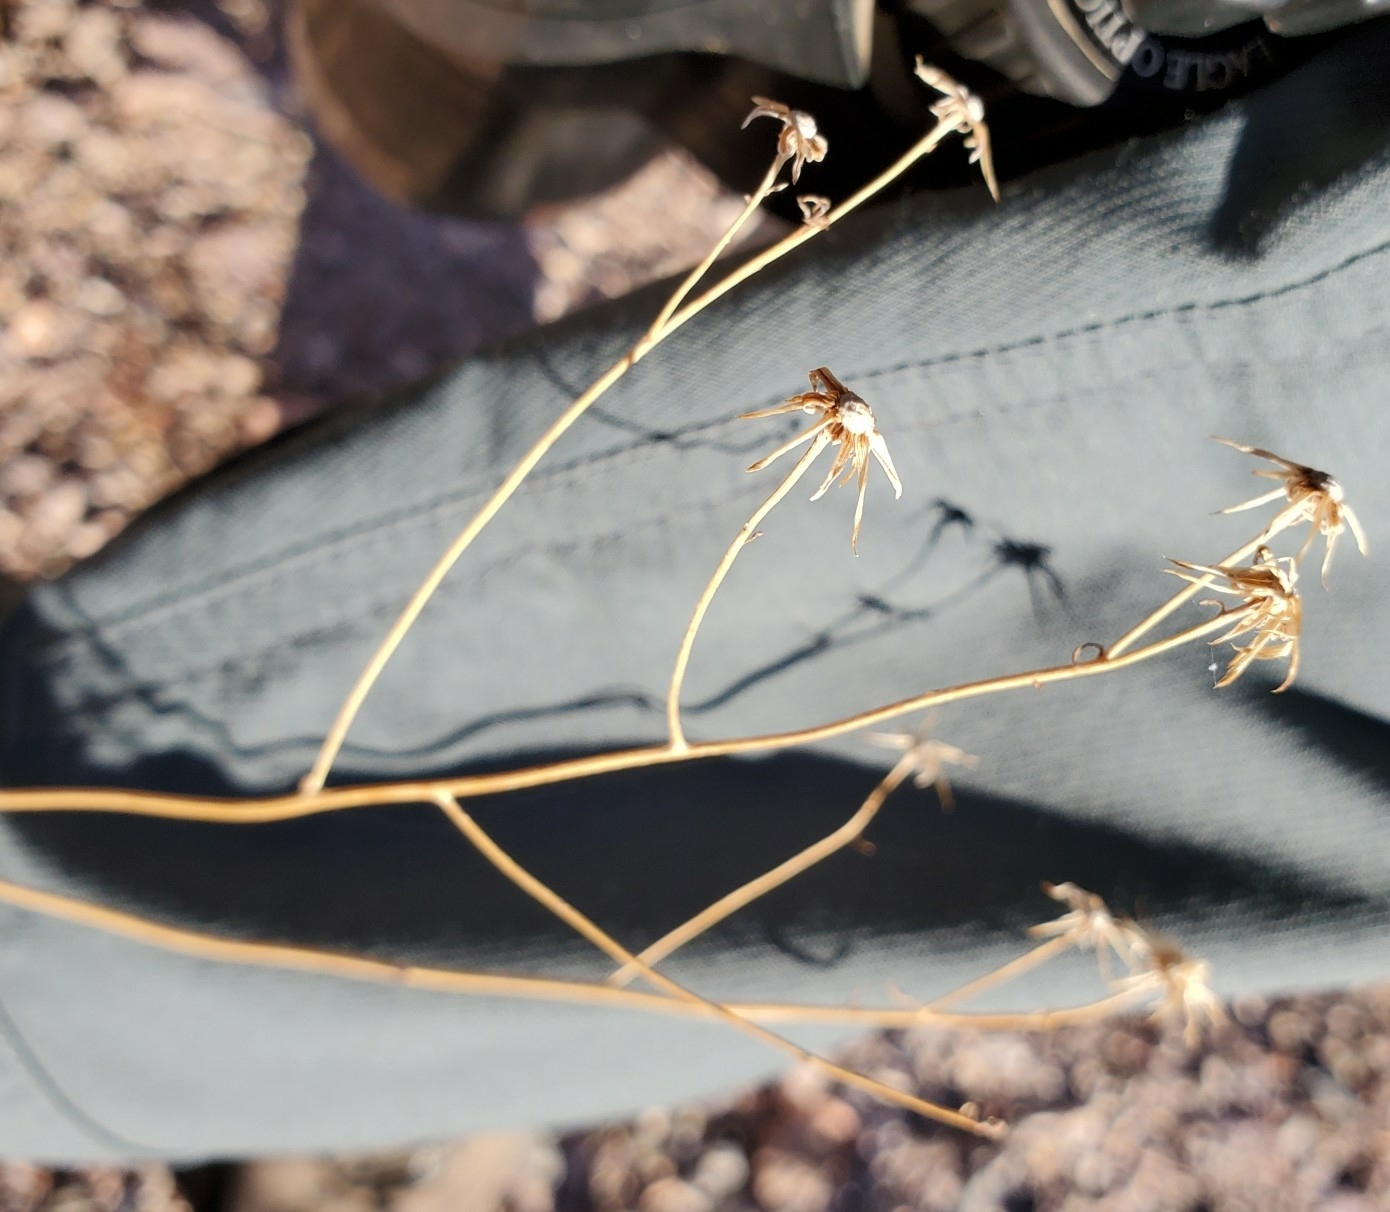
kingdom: Plantae
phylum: Tracheophyta
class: Magnoliopsida
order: Asterales
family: Asteraceae
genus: Adenophyllum
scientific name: Adenophyllum porophylloides
